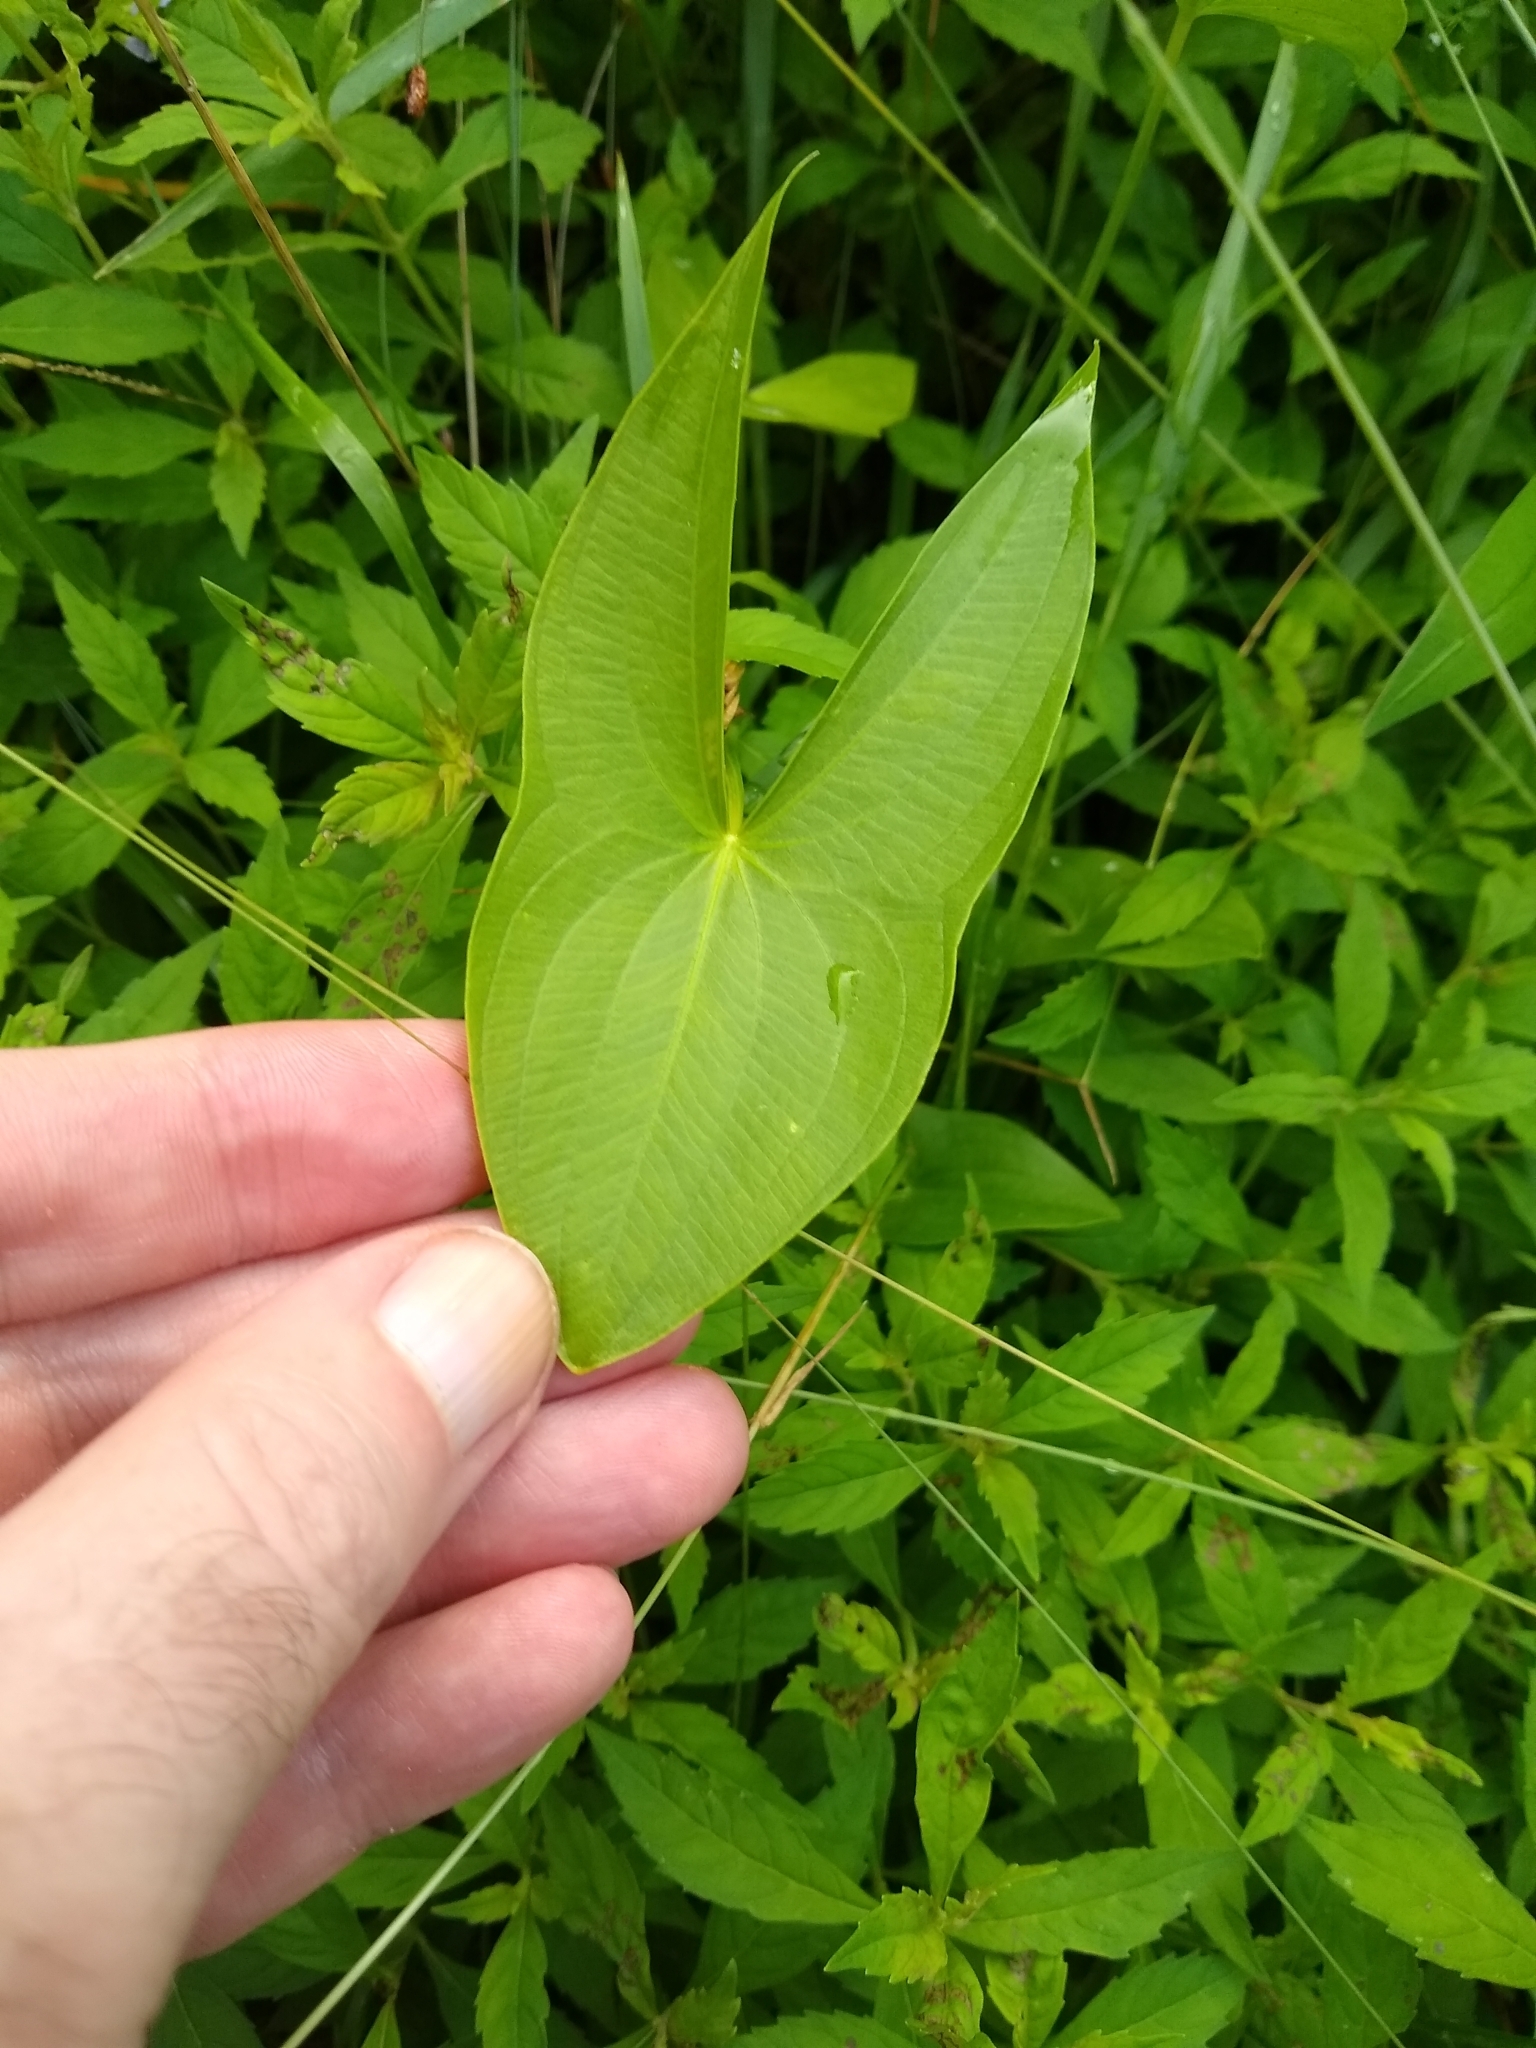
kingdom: Plantae
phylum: Tracheophyta
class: Liliopsida
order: Alismatales
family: Alismataceae
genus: Sagittaria
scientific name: Sagittaria latifolia
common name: Duck-potato
